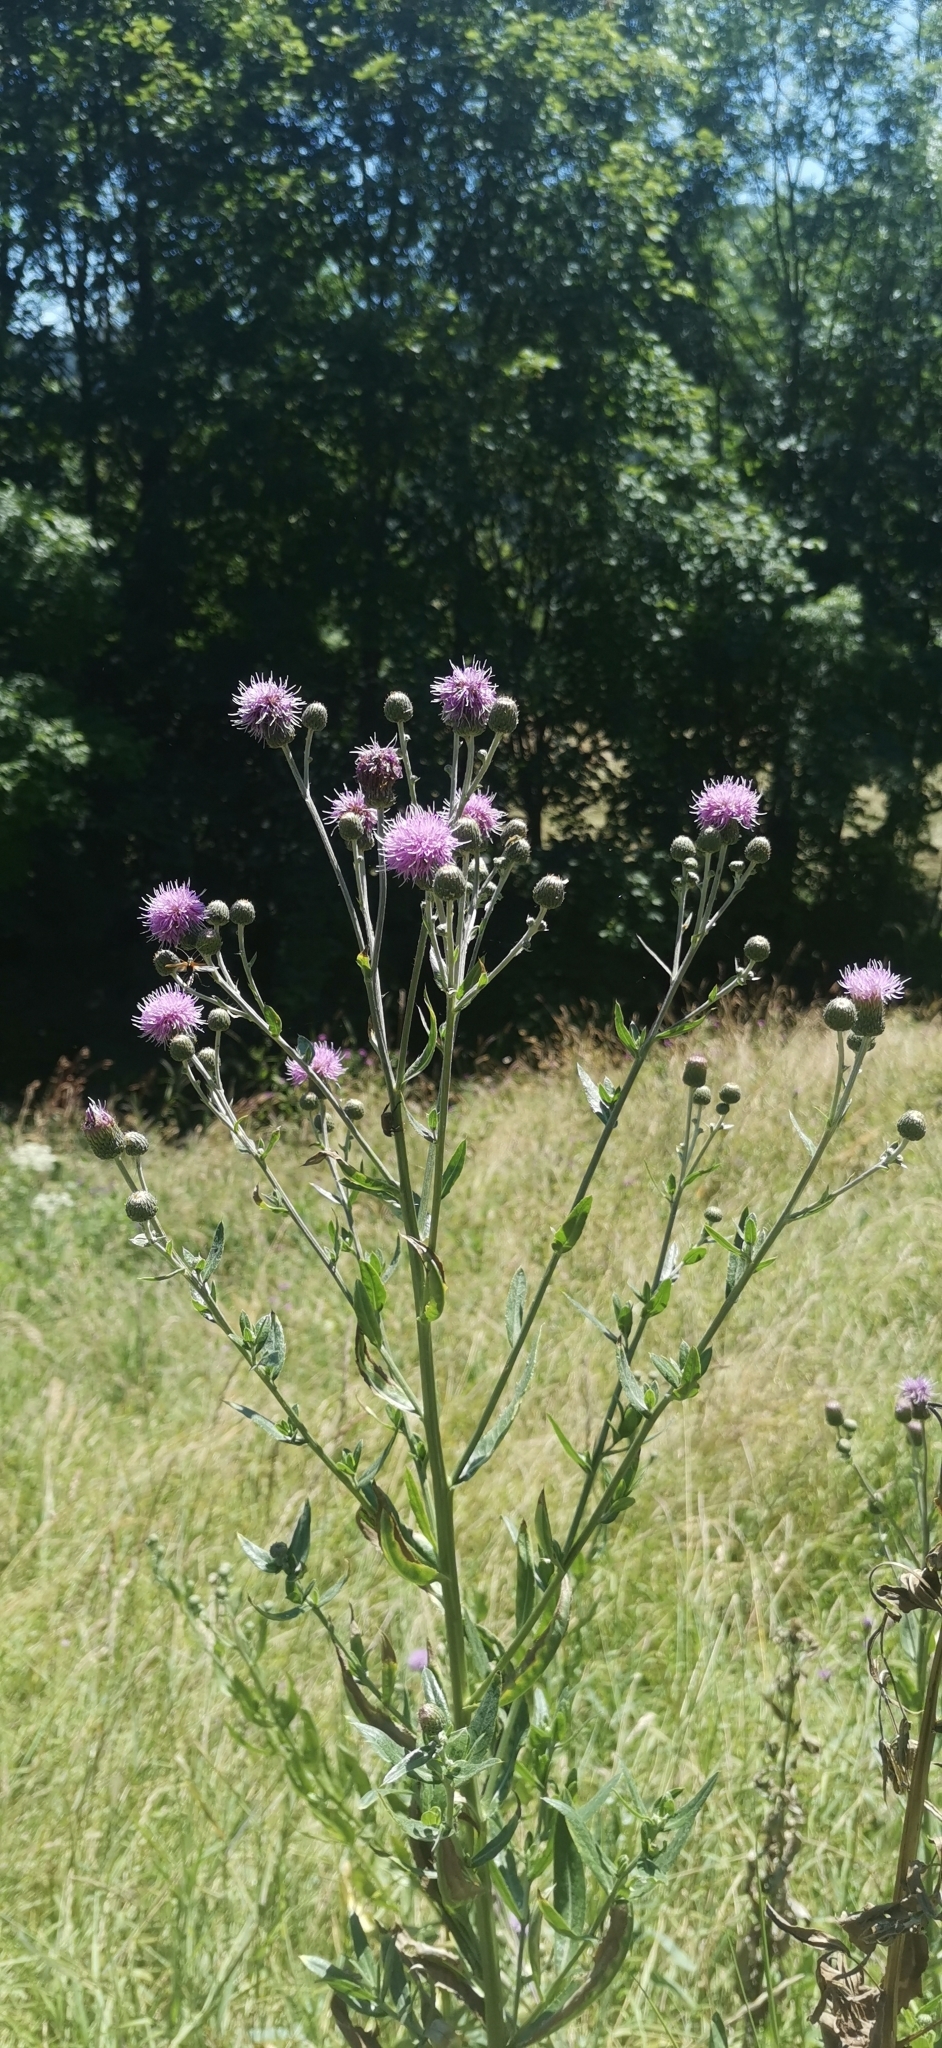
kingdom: Plantae
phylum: Tracheophyta
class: Magnoliopsida
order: Asterales
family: Asteraceae
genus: Cirsium
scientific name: Cirsium arvense
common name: Creeping thistle
